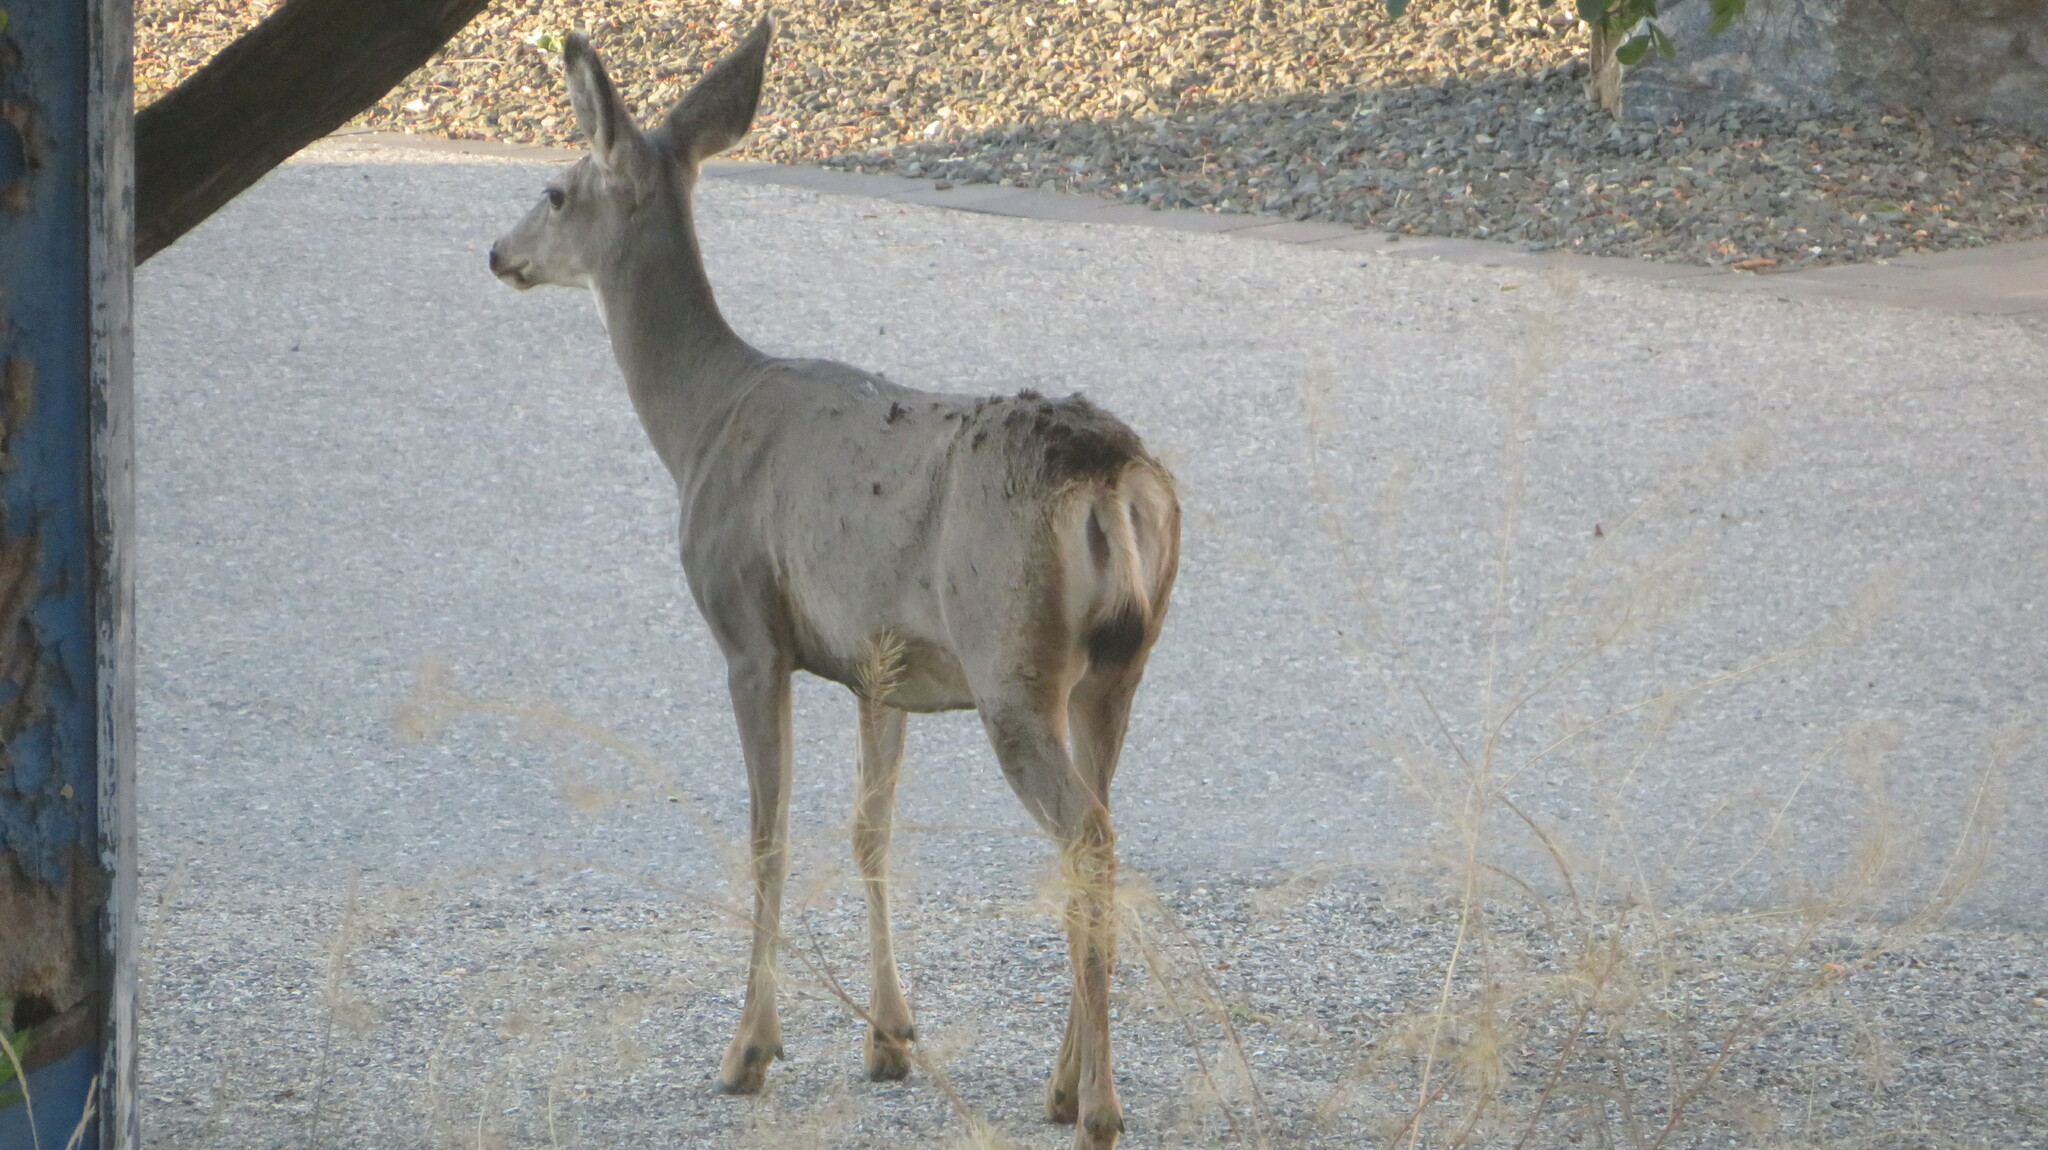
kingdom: Animalia
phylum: Chordata
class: Mammalia
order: Artiodactyla
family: Cervidae
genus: Odocoileus
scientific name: Odocoileus hemionus
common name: Mule deer
